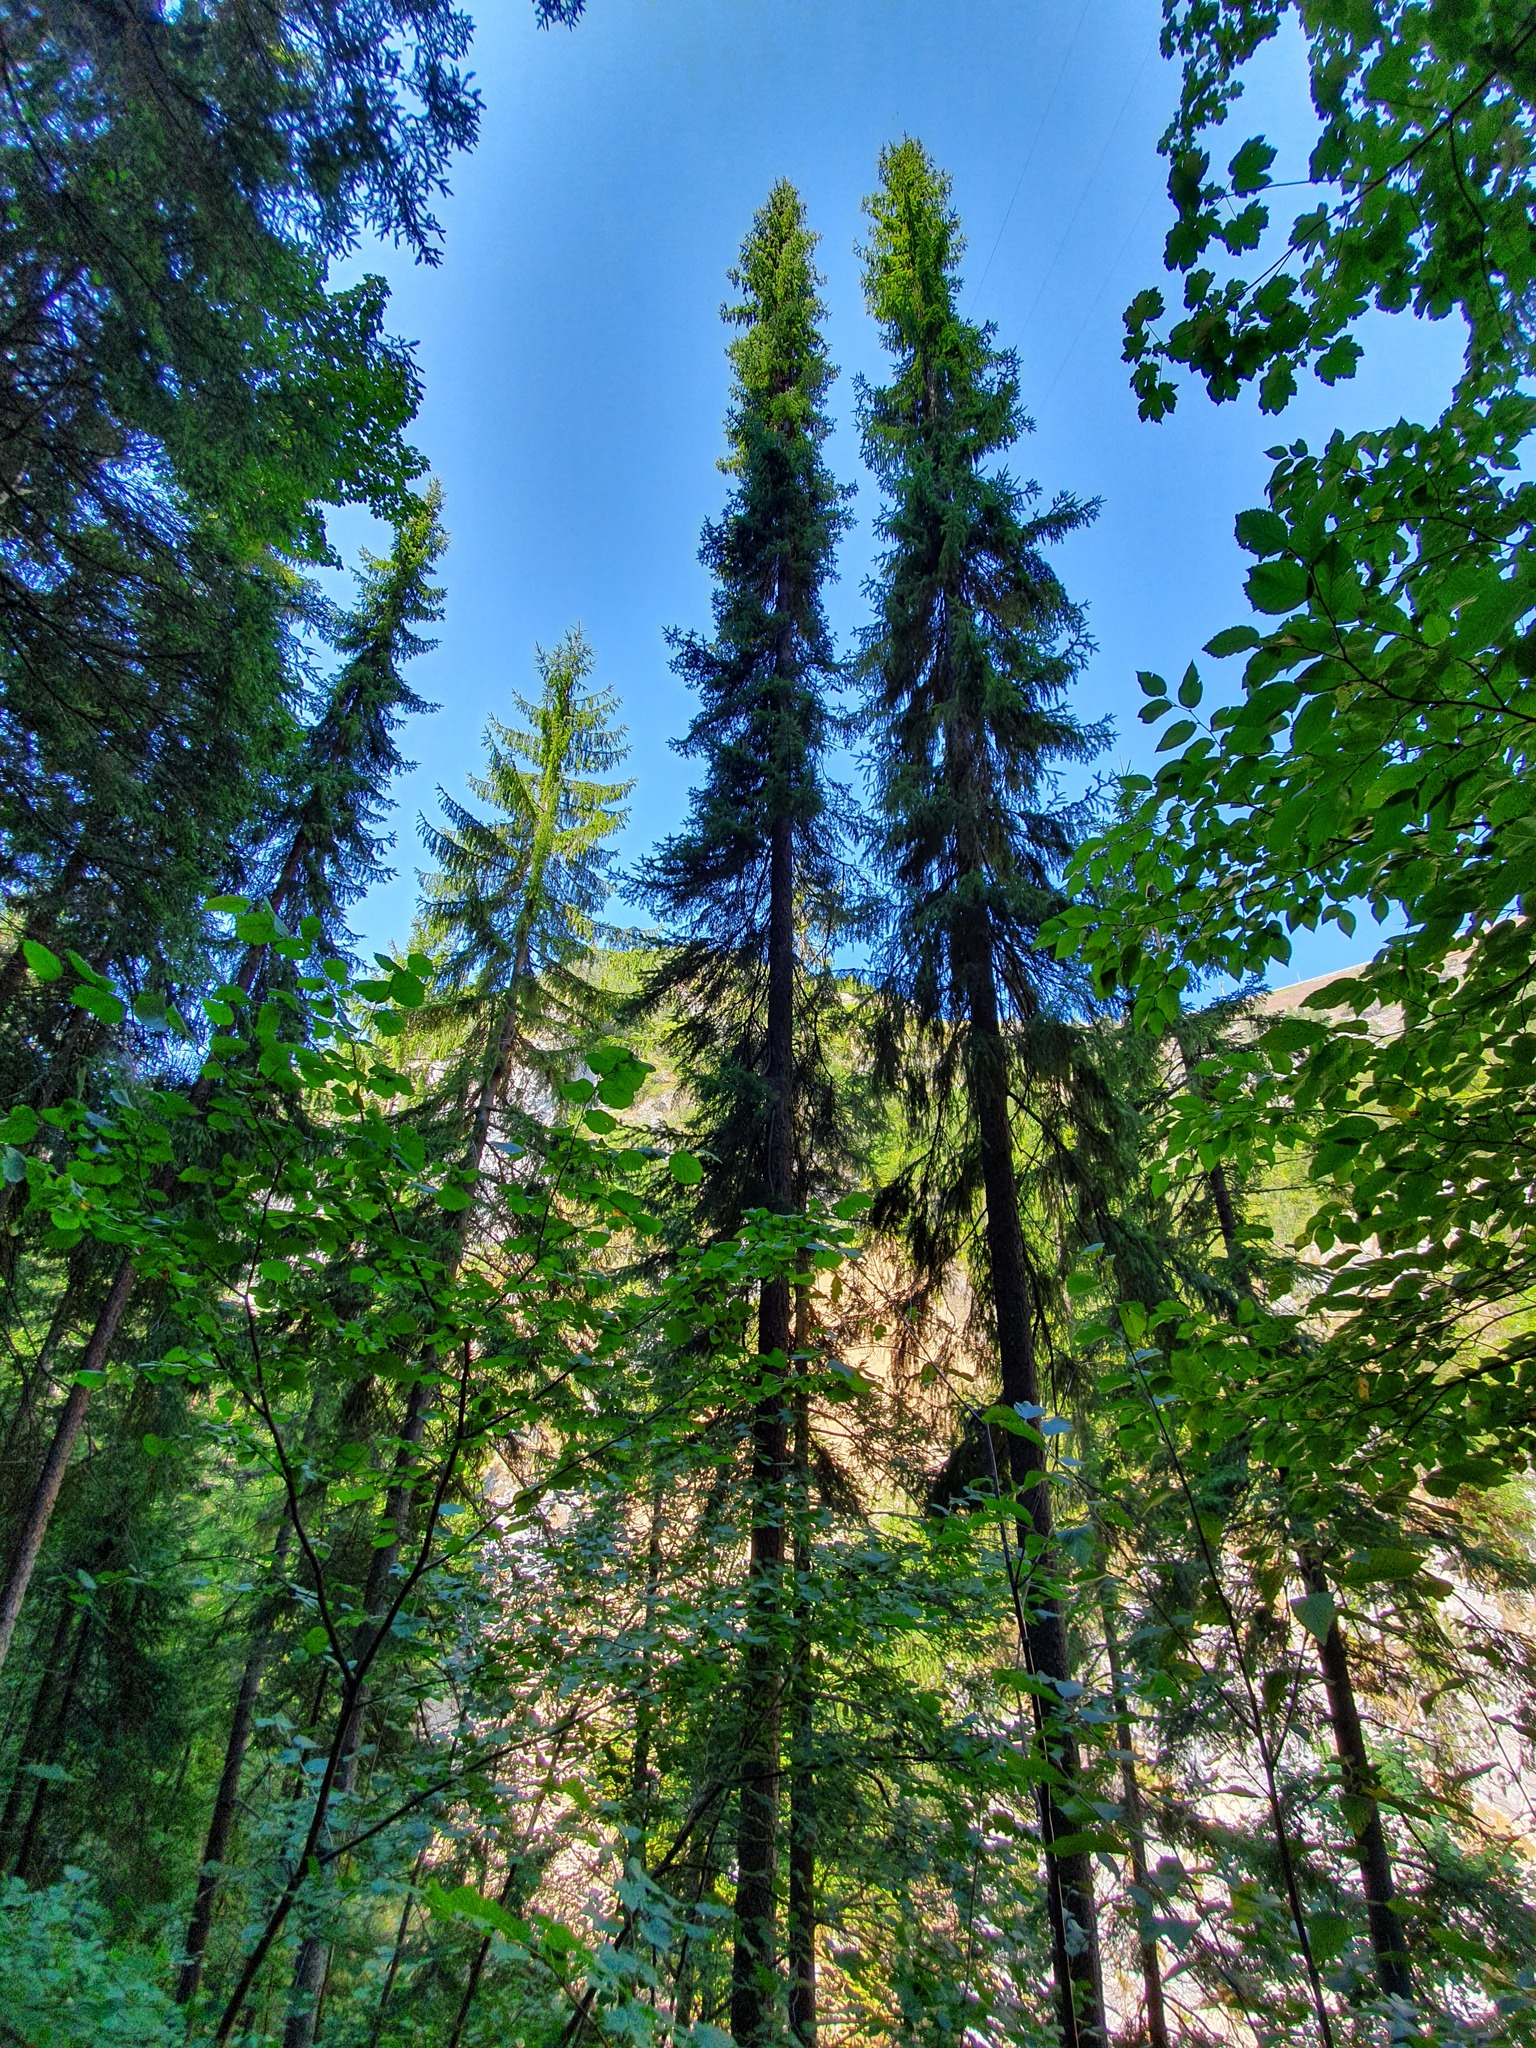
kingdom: Plantae
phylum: Tracheophyta
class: Pinopsida
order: Pinales
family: Pinaceae
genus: Picea
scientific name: Picea omorika
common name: Serbian spruce
